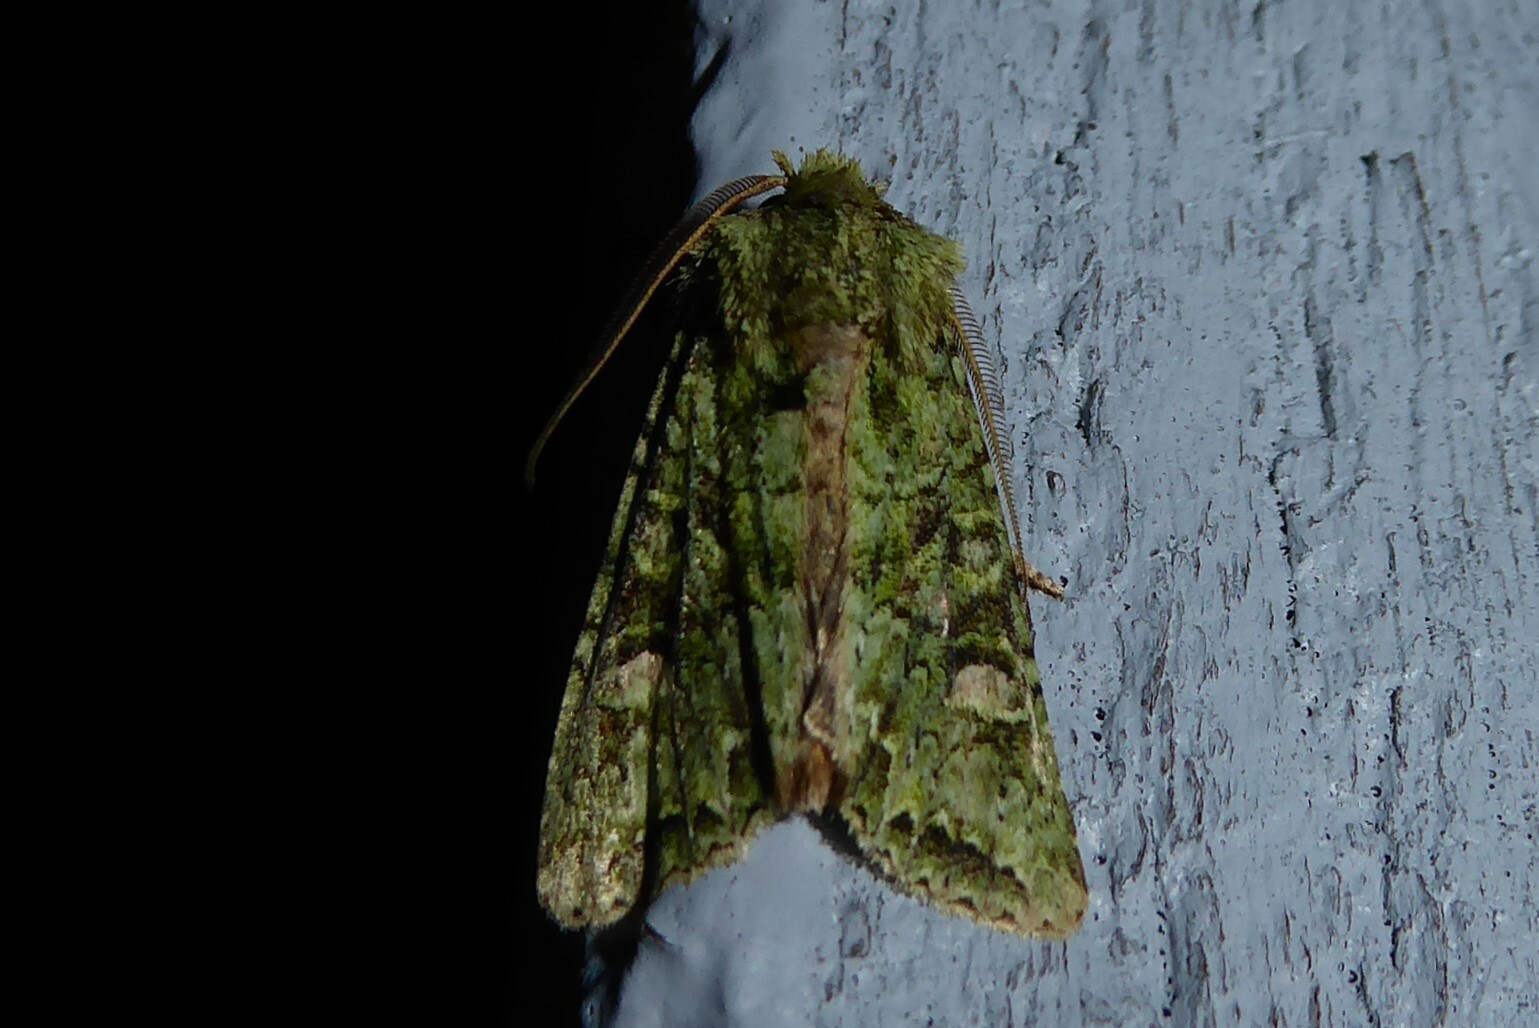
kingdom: Animalia
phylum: Arthropoda
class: Insecta
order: Lepidoptera
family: Noctuidae
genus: Ichneutica
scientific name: Ichneutica
